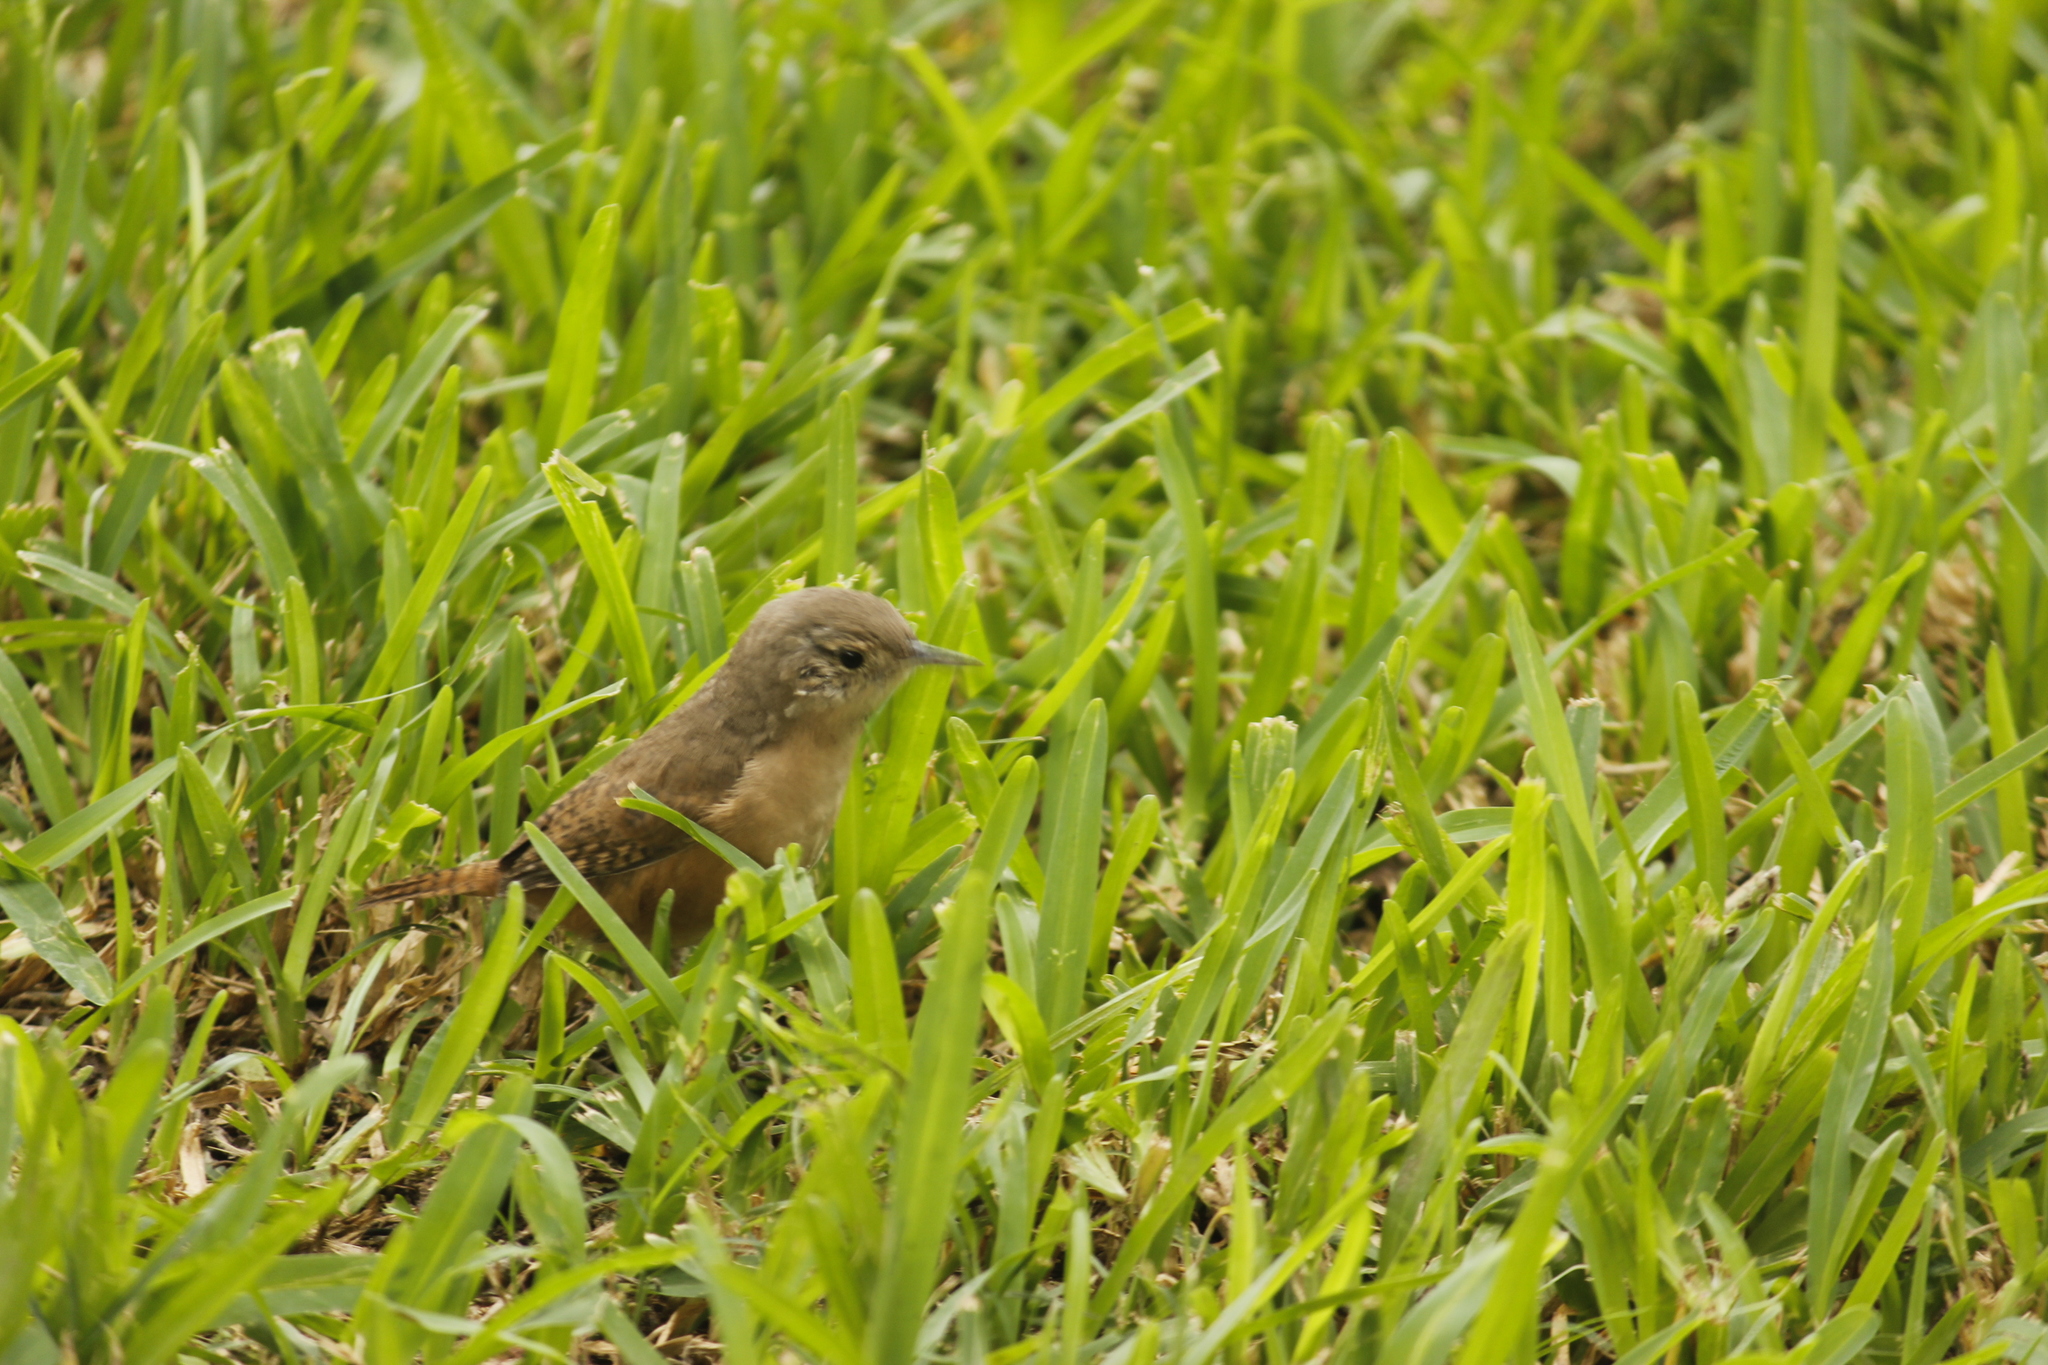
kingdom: Animalia
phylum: Chordata
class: Aves
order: Passeriformes
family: Troglodytidae
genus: Troglodytes
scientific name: Troglodytes aedon
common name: House wren
